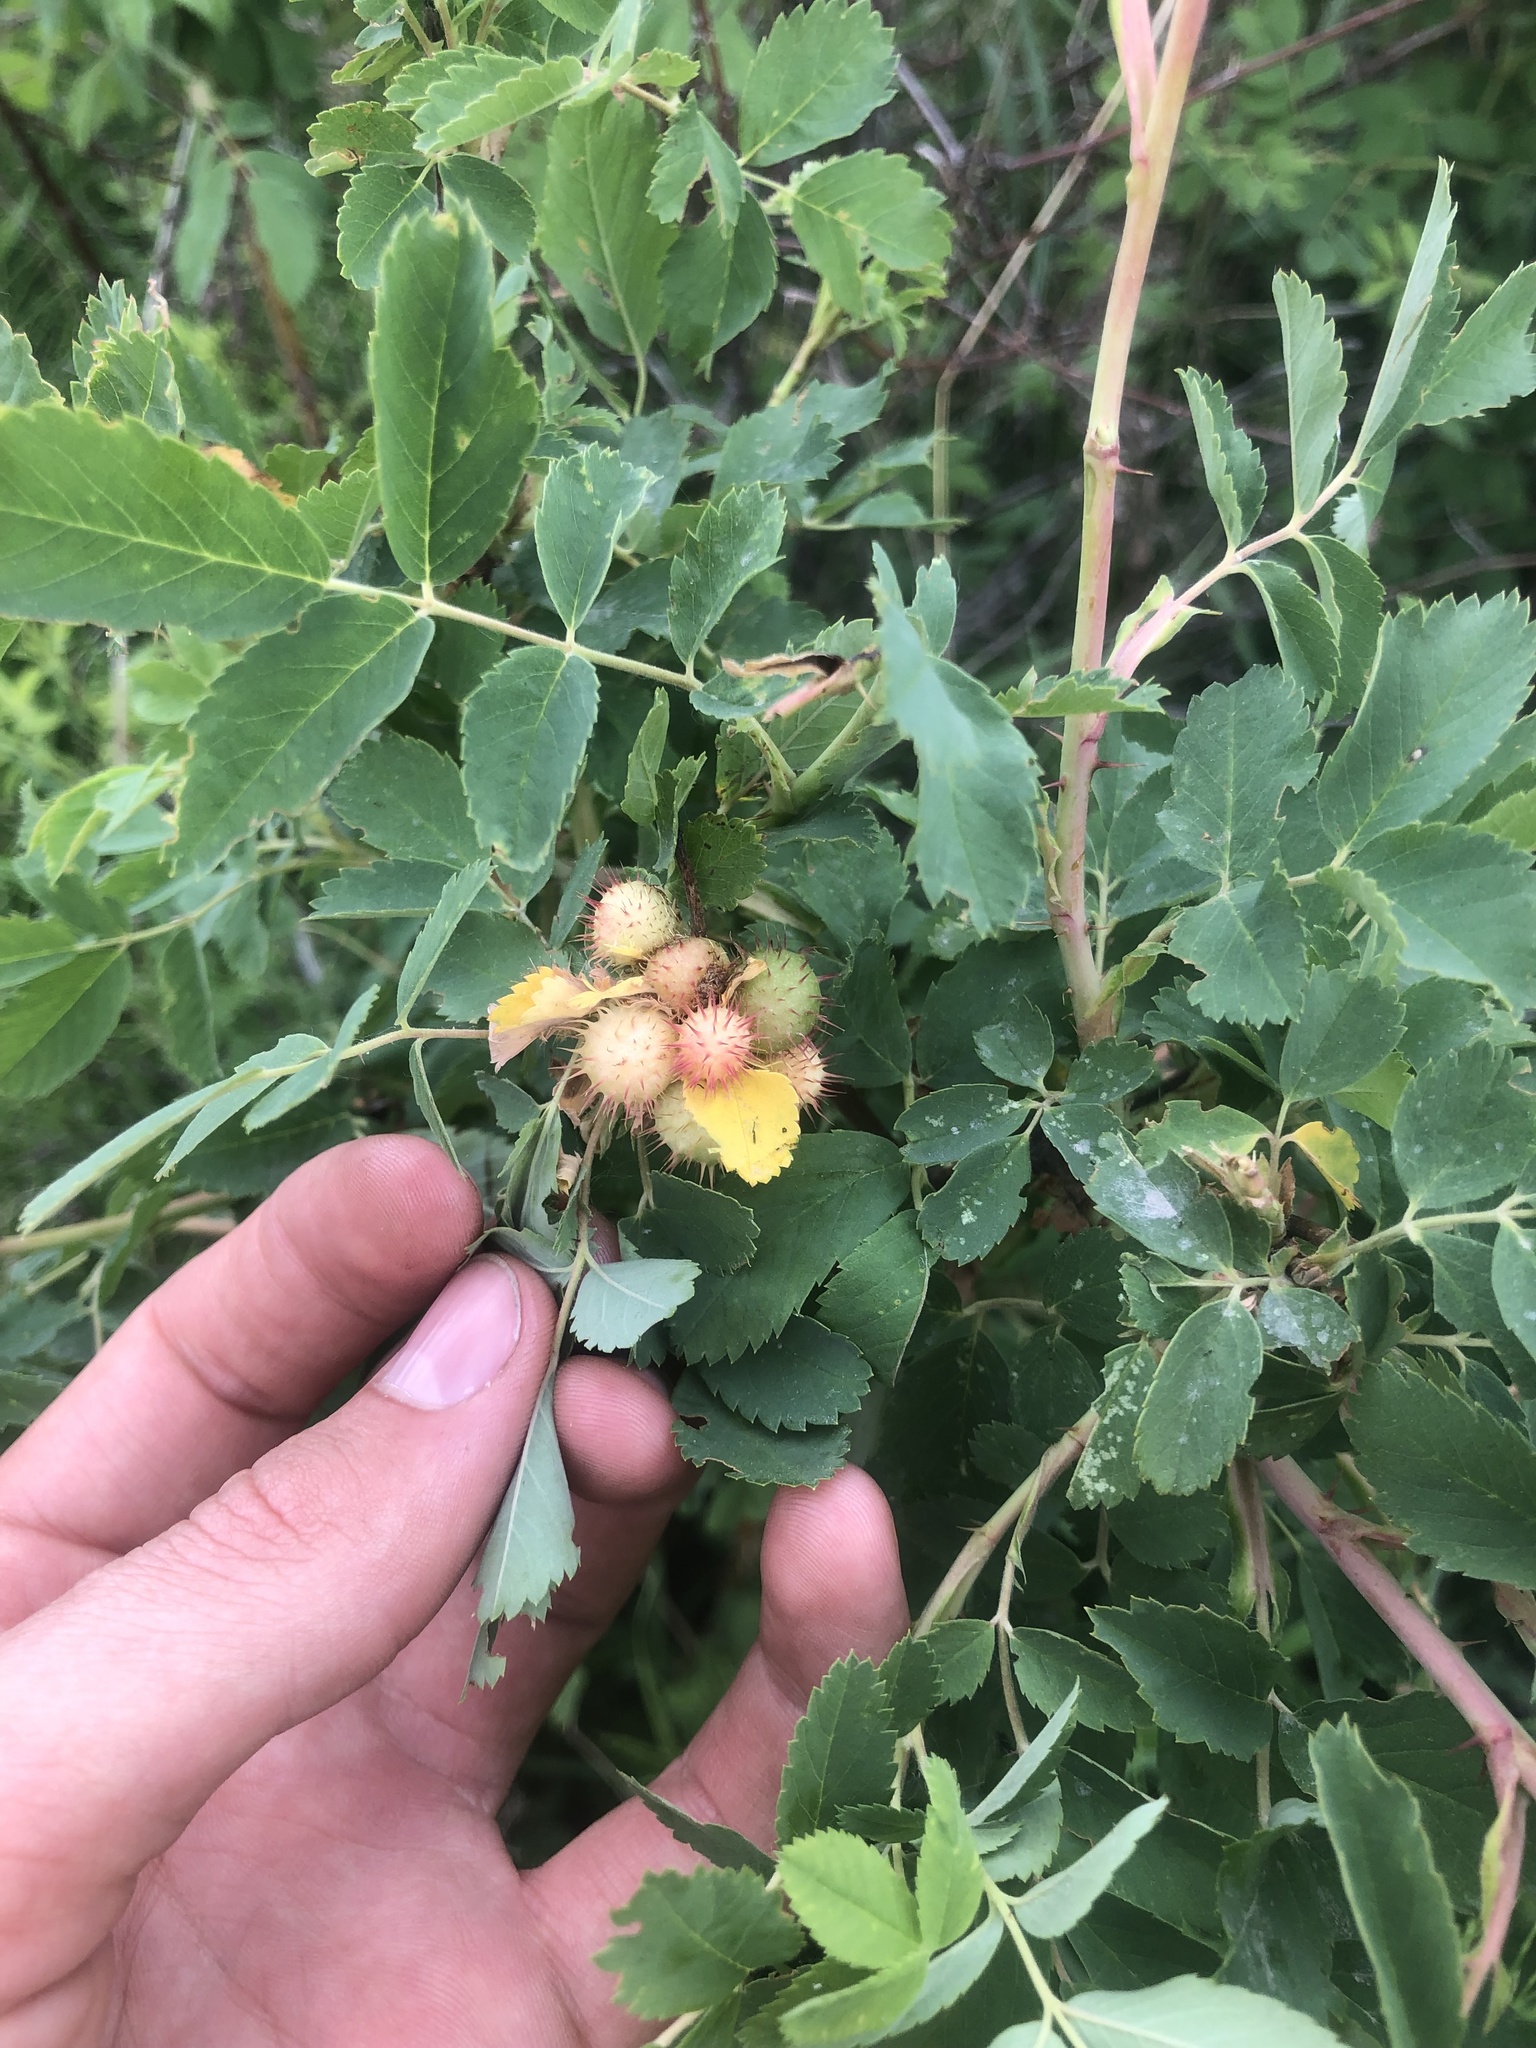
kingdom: Animalia
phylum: Arthropoda
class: Insecta
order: Hymenoptera
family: Cynipidae
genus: Diplolepis
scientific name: Diplolepis polita
